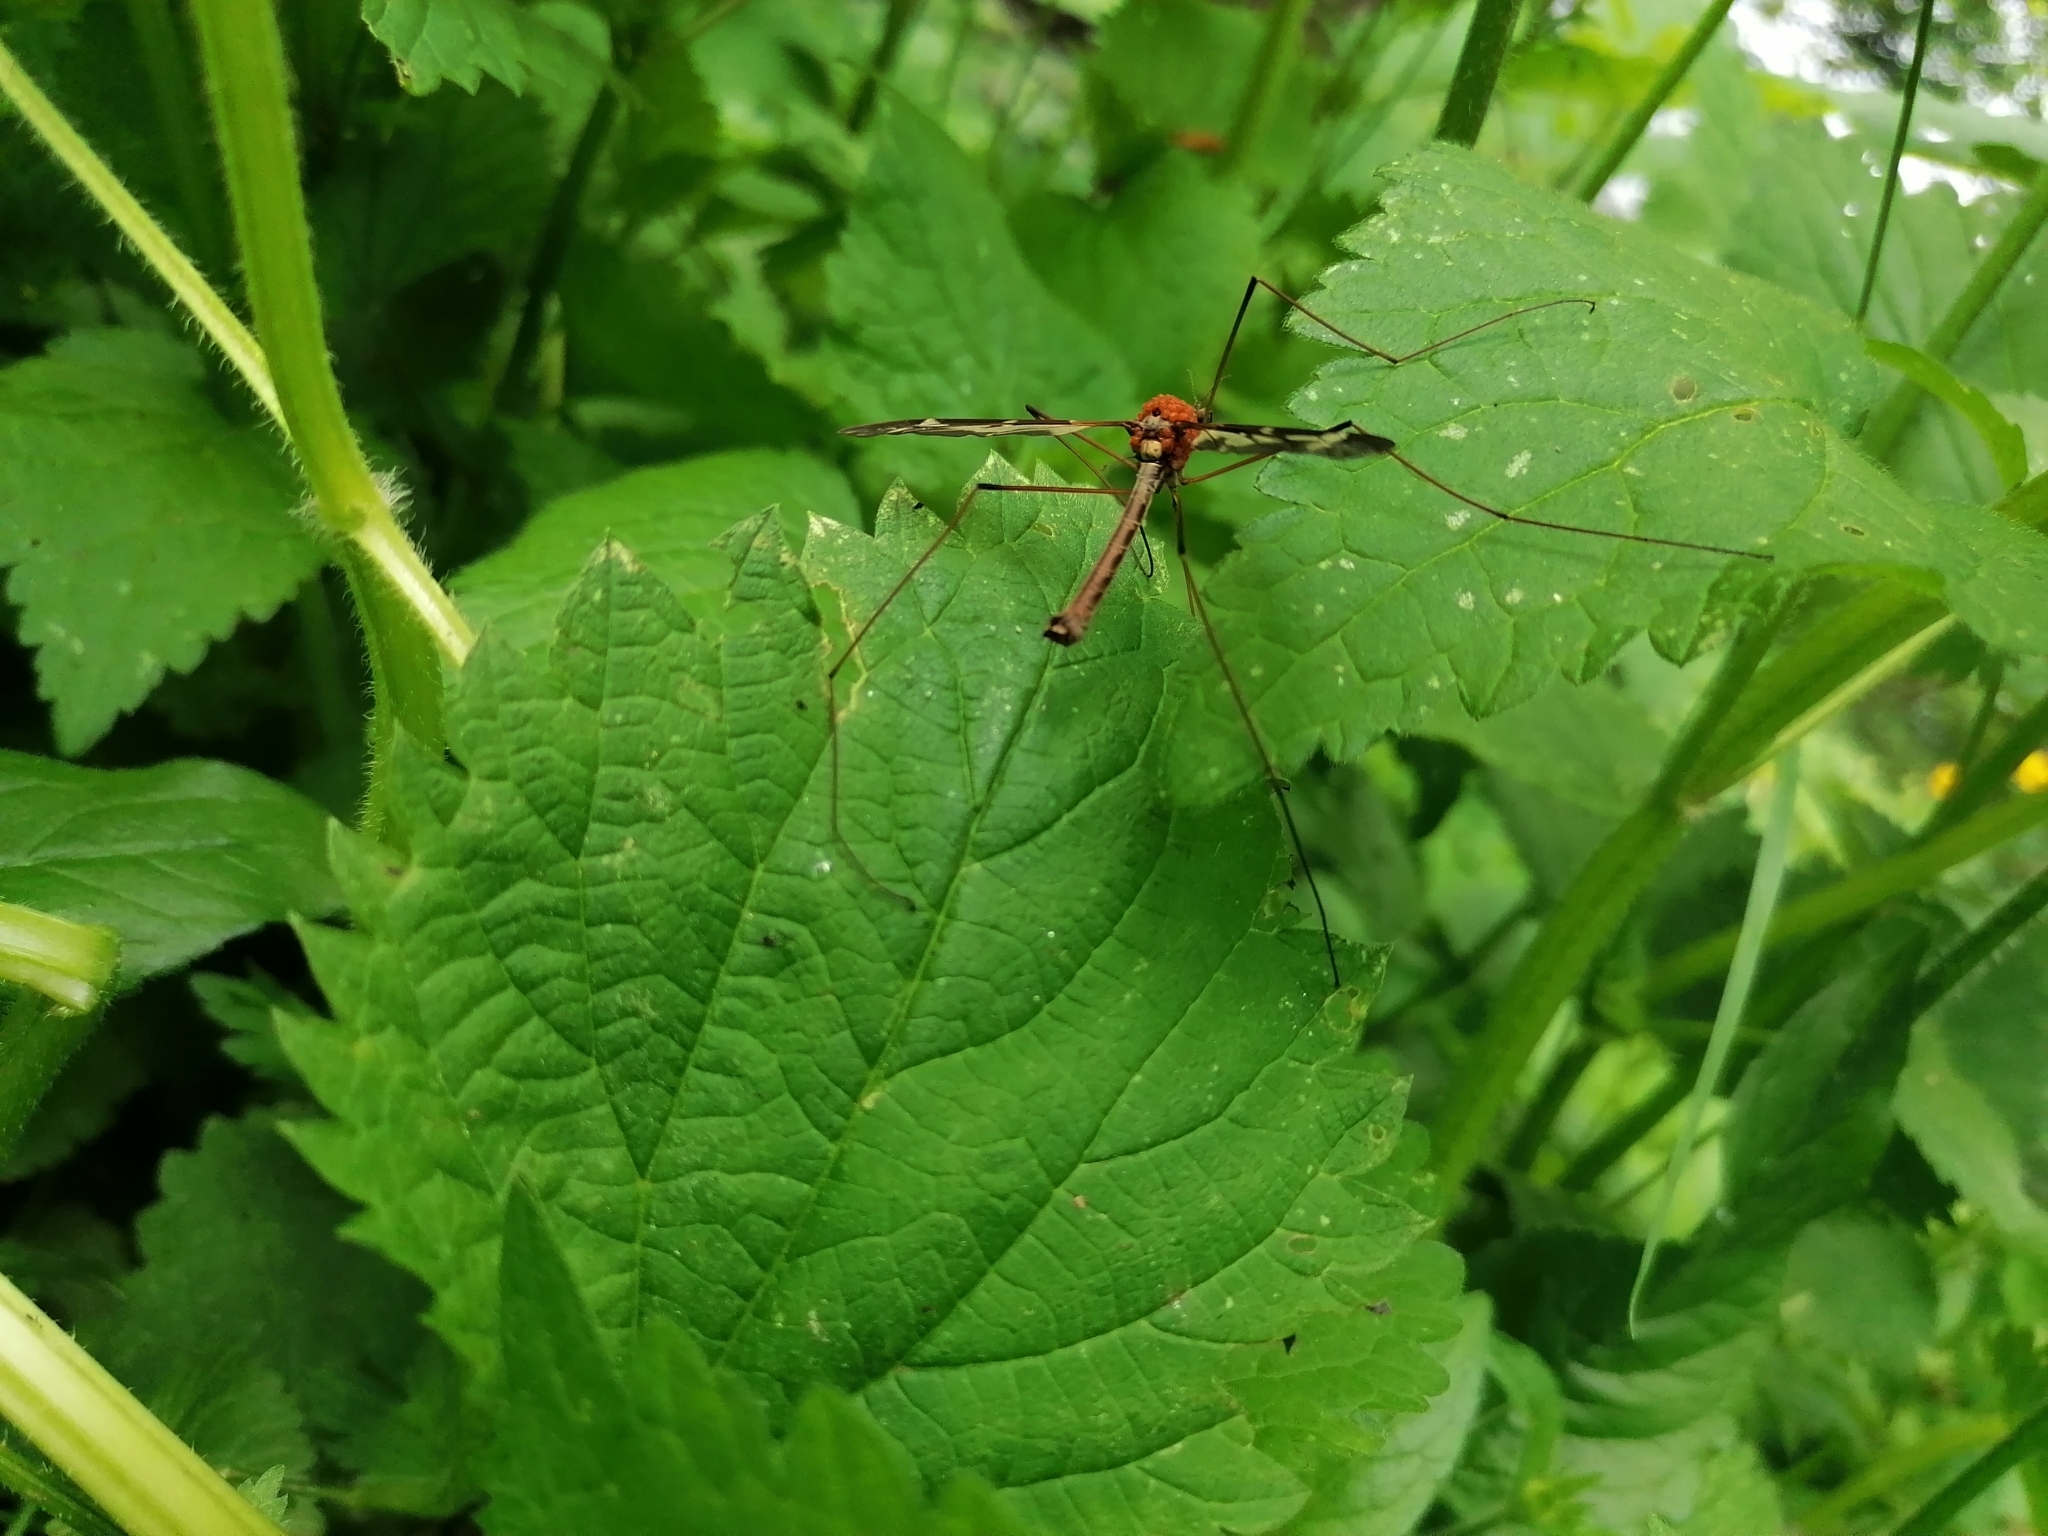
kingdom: Animalia
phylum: Arthropoda
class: Insecta
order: Diptera
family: Tipulidae
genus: Tipula
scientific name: Tipula maxima
